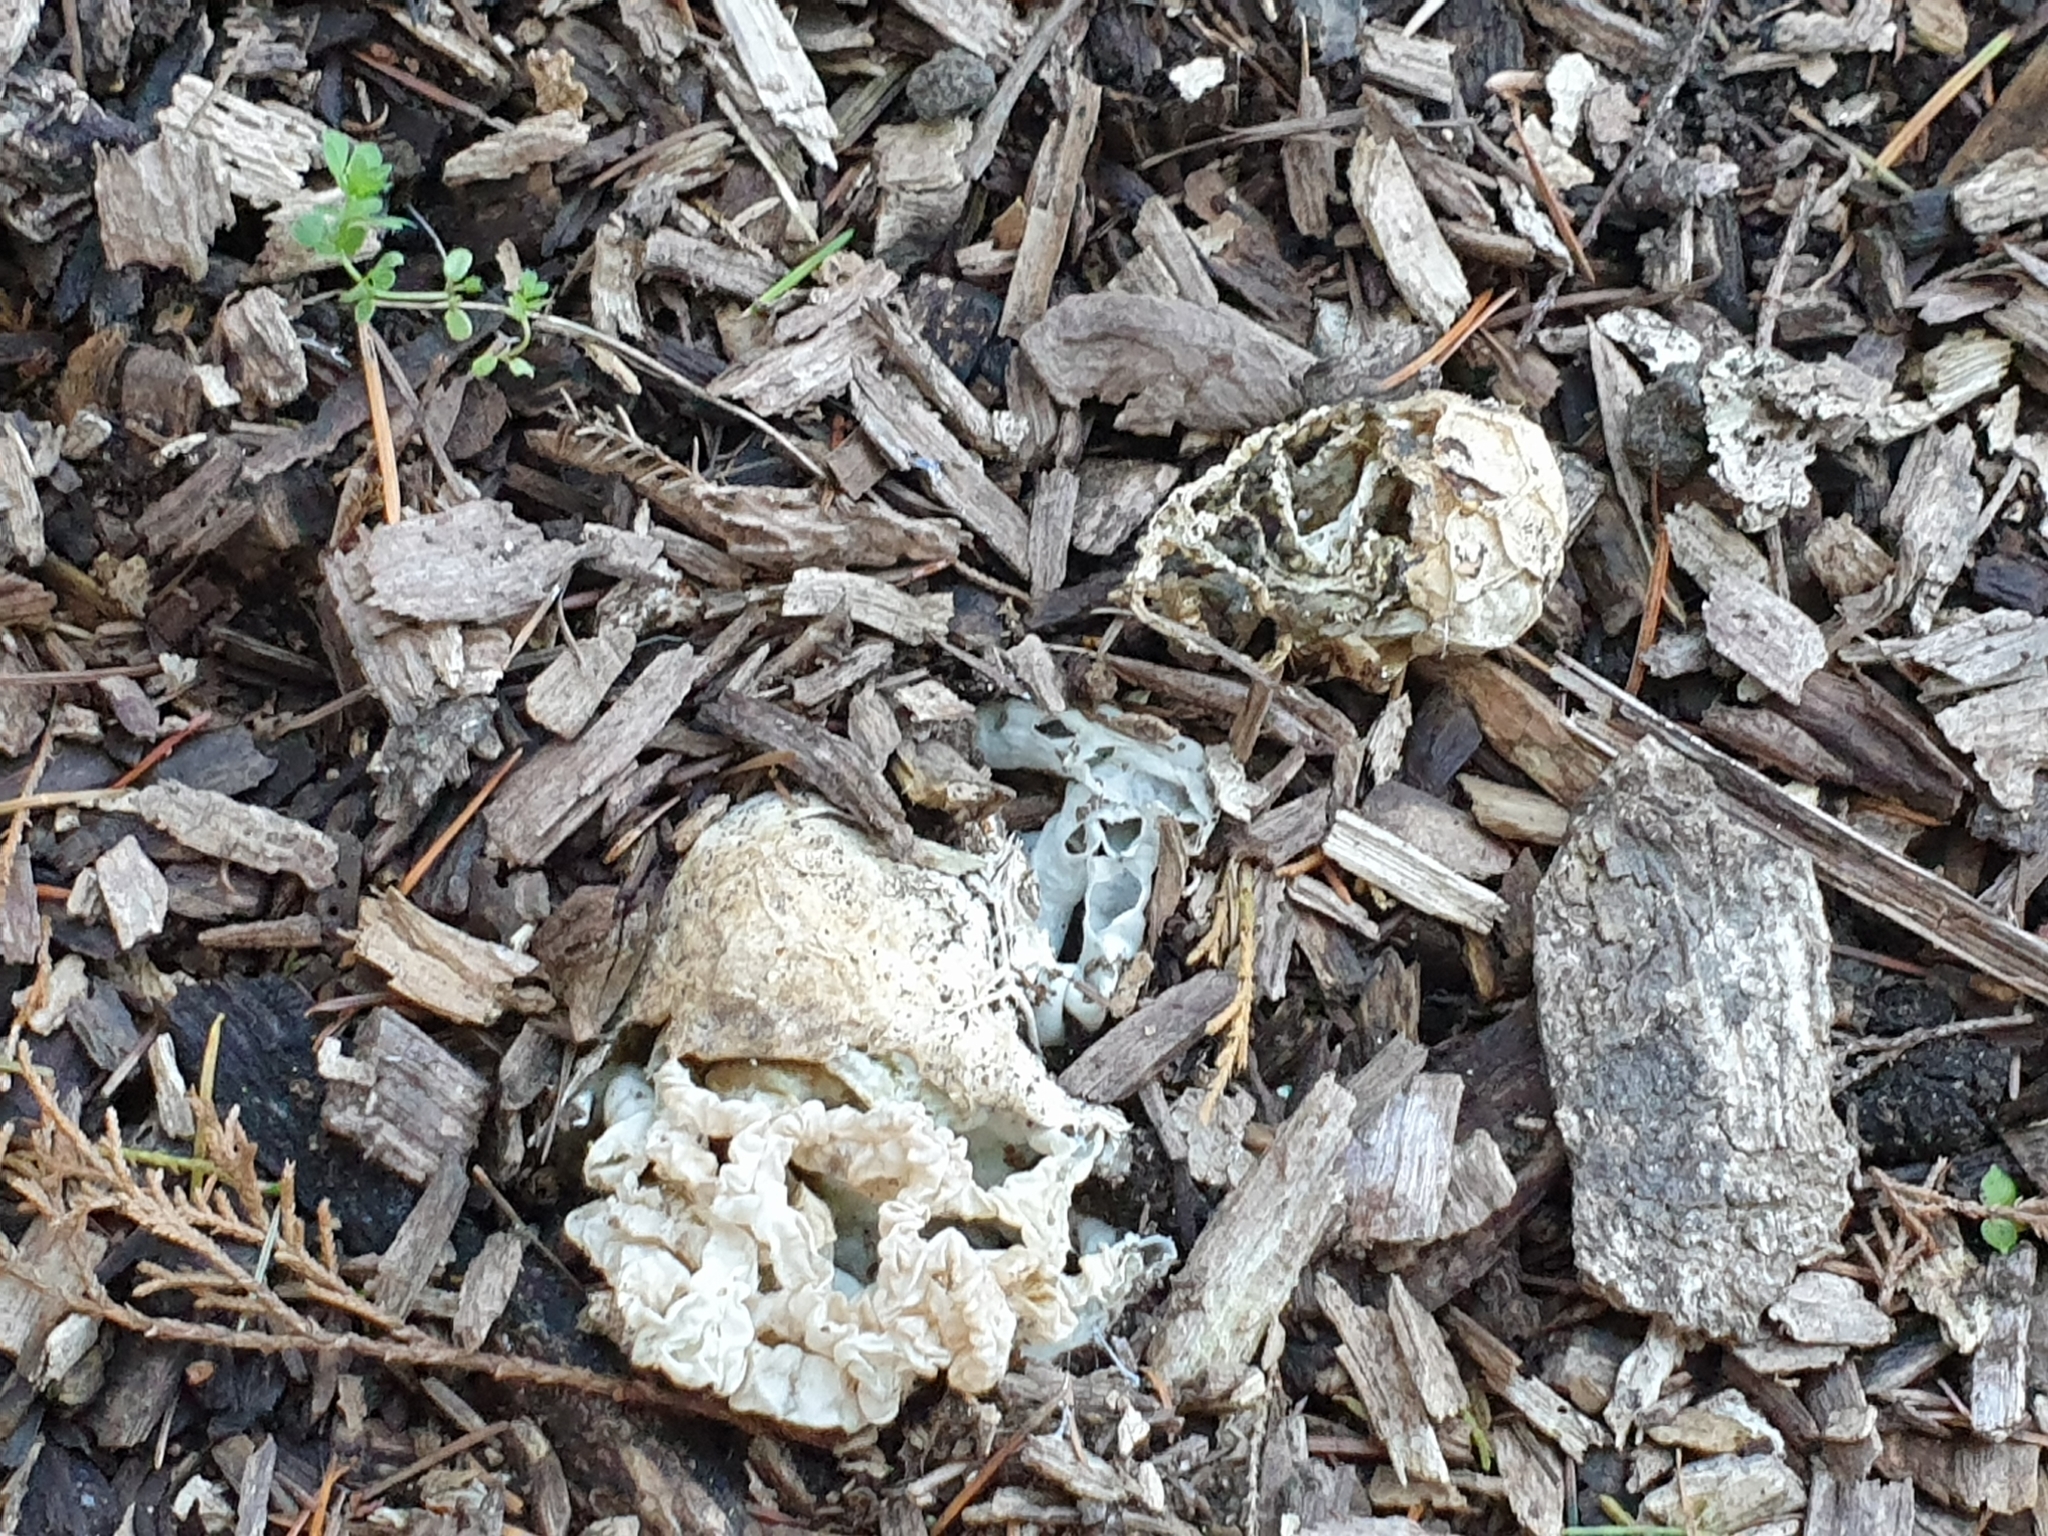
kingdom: Fungi
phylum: Basidiomycota
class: Agaricomycetes
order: Phallales
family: Phallaceae
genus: Ileodictyon
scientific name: Ileodictyon cibarium
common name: Basket fungus
